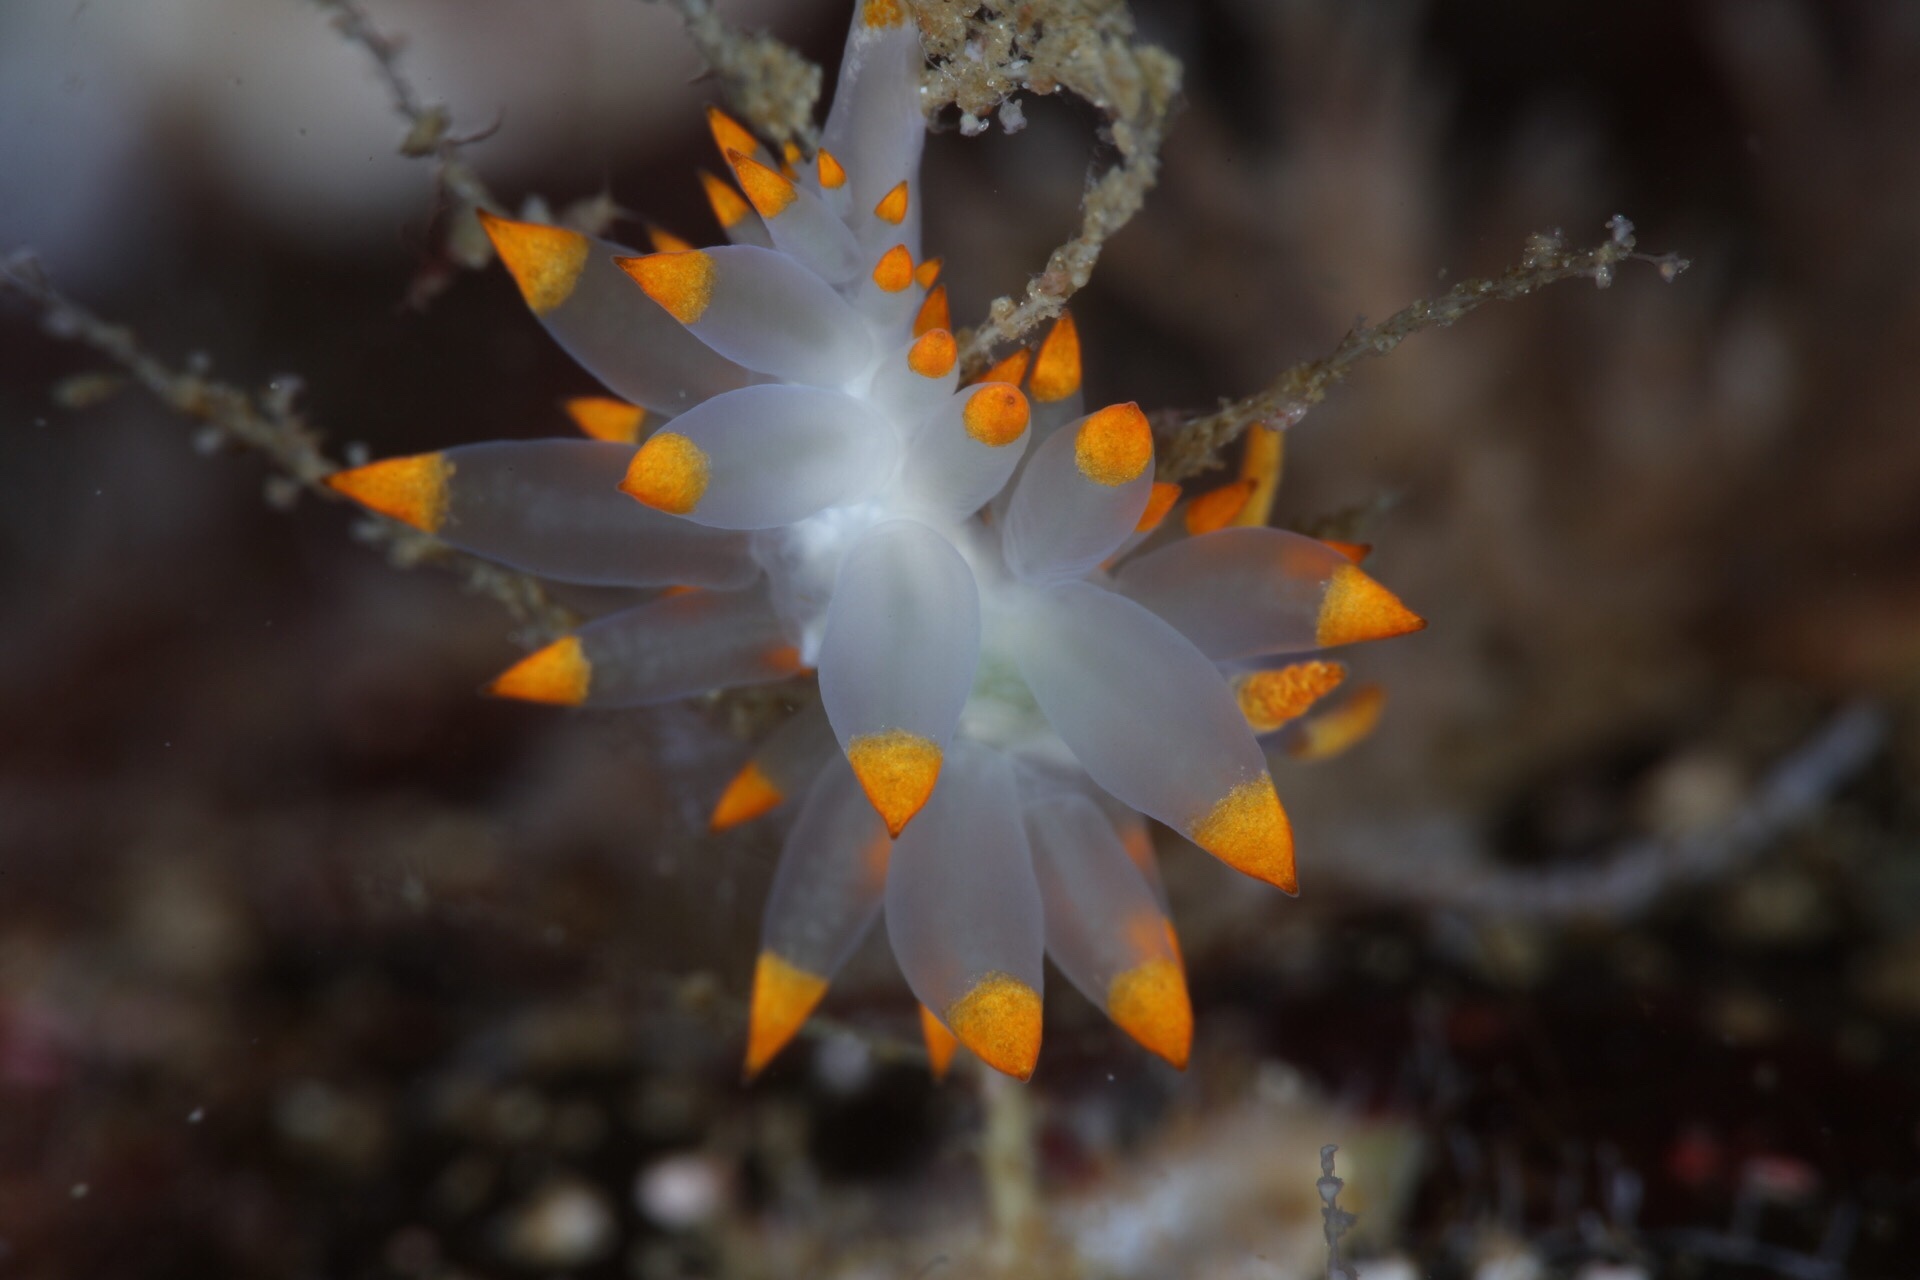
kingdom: Animalia
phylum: Mollusca
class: Gastropoda
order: Nudibranchia
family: Eubranchidae
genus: Amphorina
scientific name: Amphorina farrani
